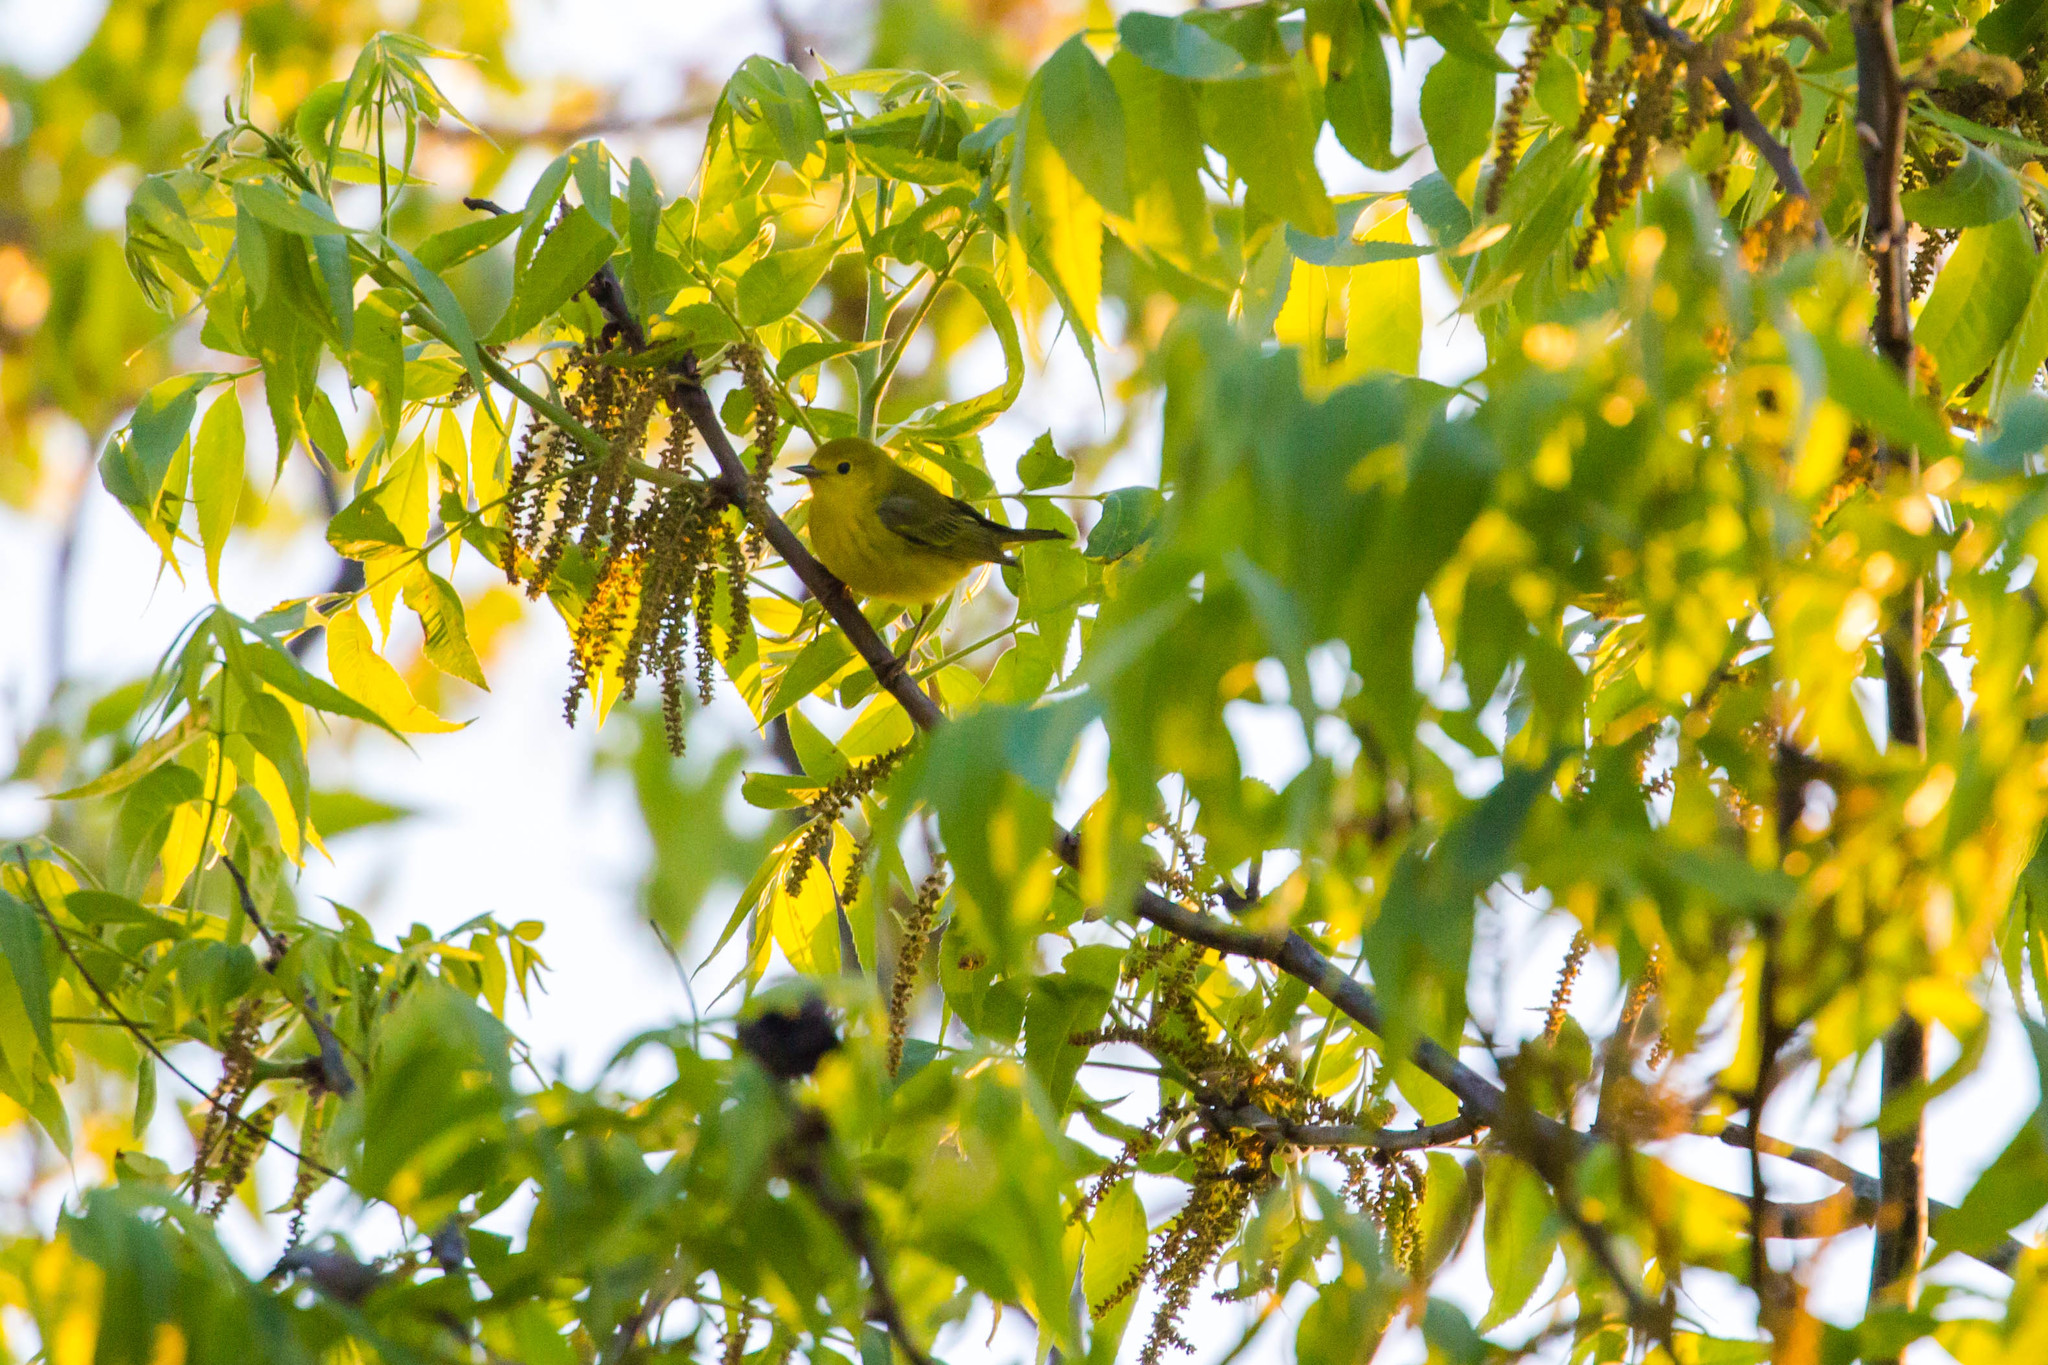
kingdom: Animalia
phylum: Chordata
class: Aves
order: Passeriformes
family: Parulidae
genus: Setophaga
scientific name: Setophaga petechia
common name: Yellow warbler
